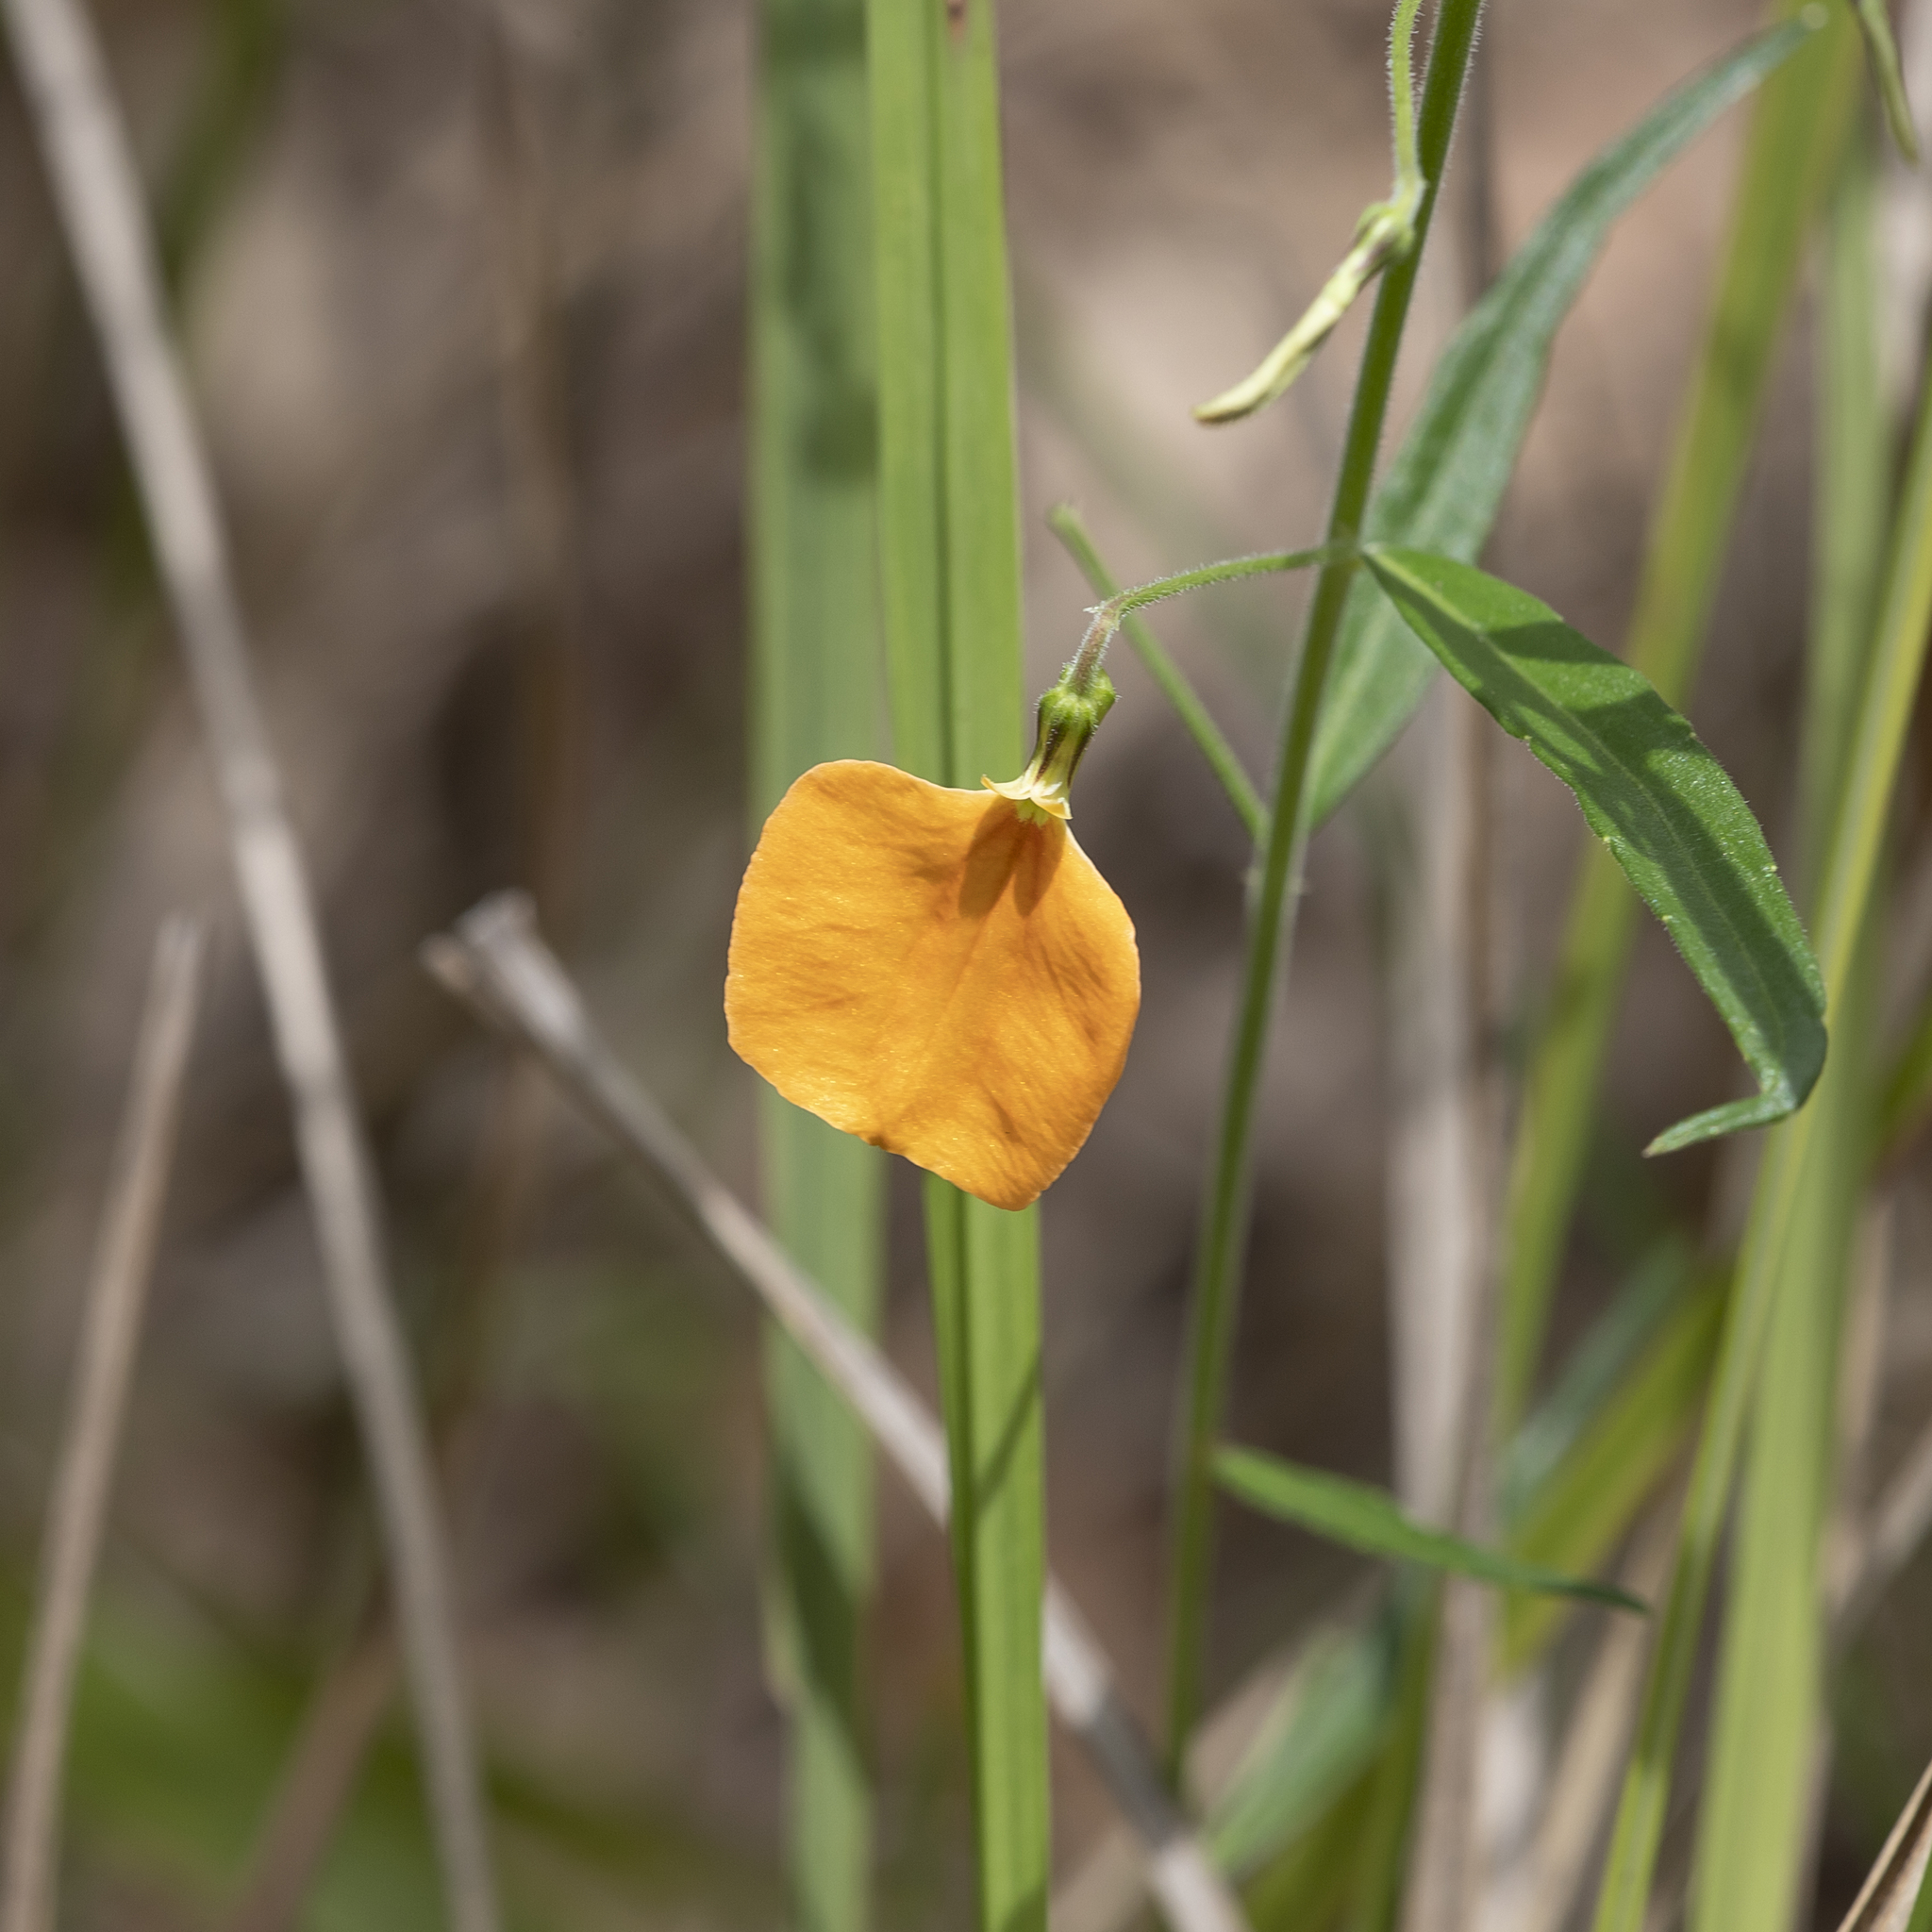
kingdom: Plantae
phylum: Tracheophyta
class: Magnoliopsida
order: Malpighiales
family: Violaceae
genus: Pigea
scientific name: Pigea stellarioides
